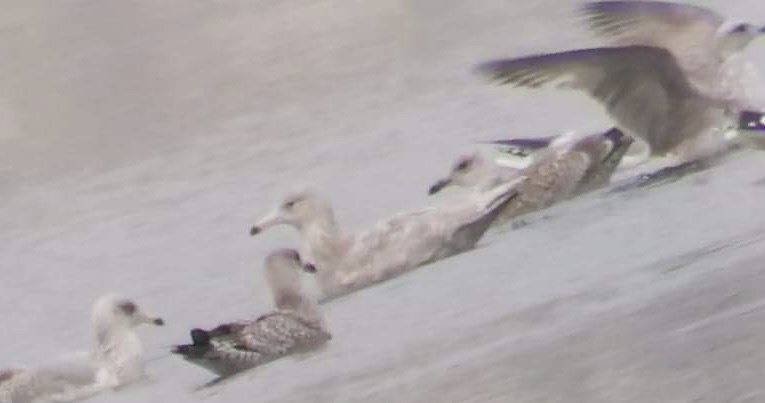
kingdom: Animalia
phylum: Chordata
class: Aves
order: Charadriiformes
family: Laridae
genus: Larus
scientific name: Larus hyperboreus
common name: Glaucous gull
